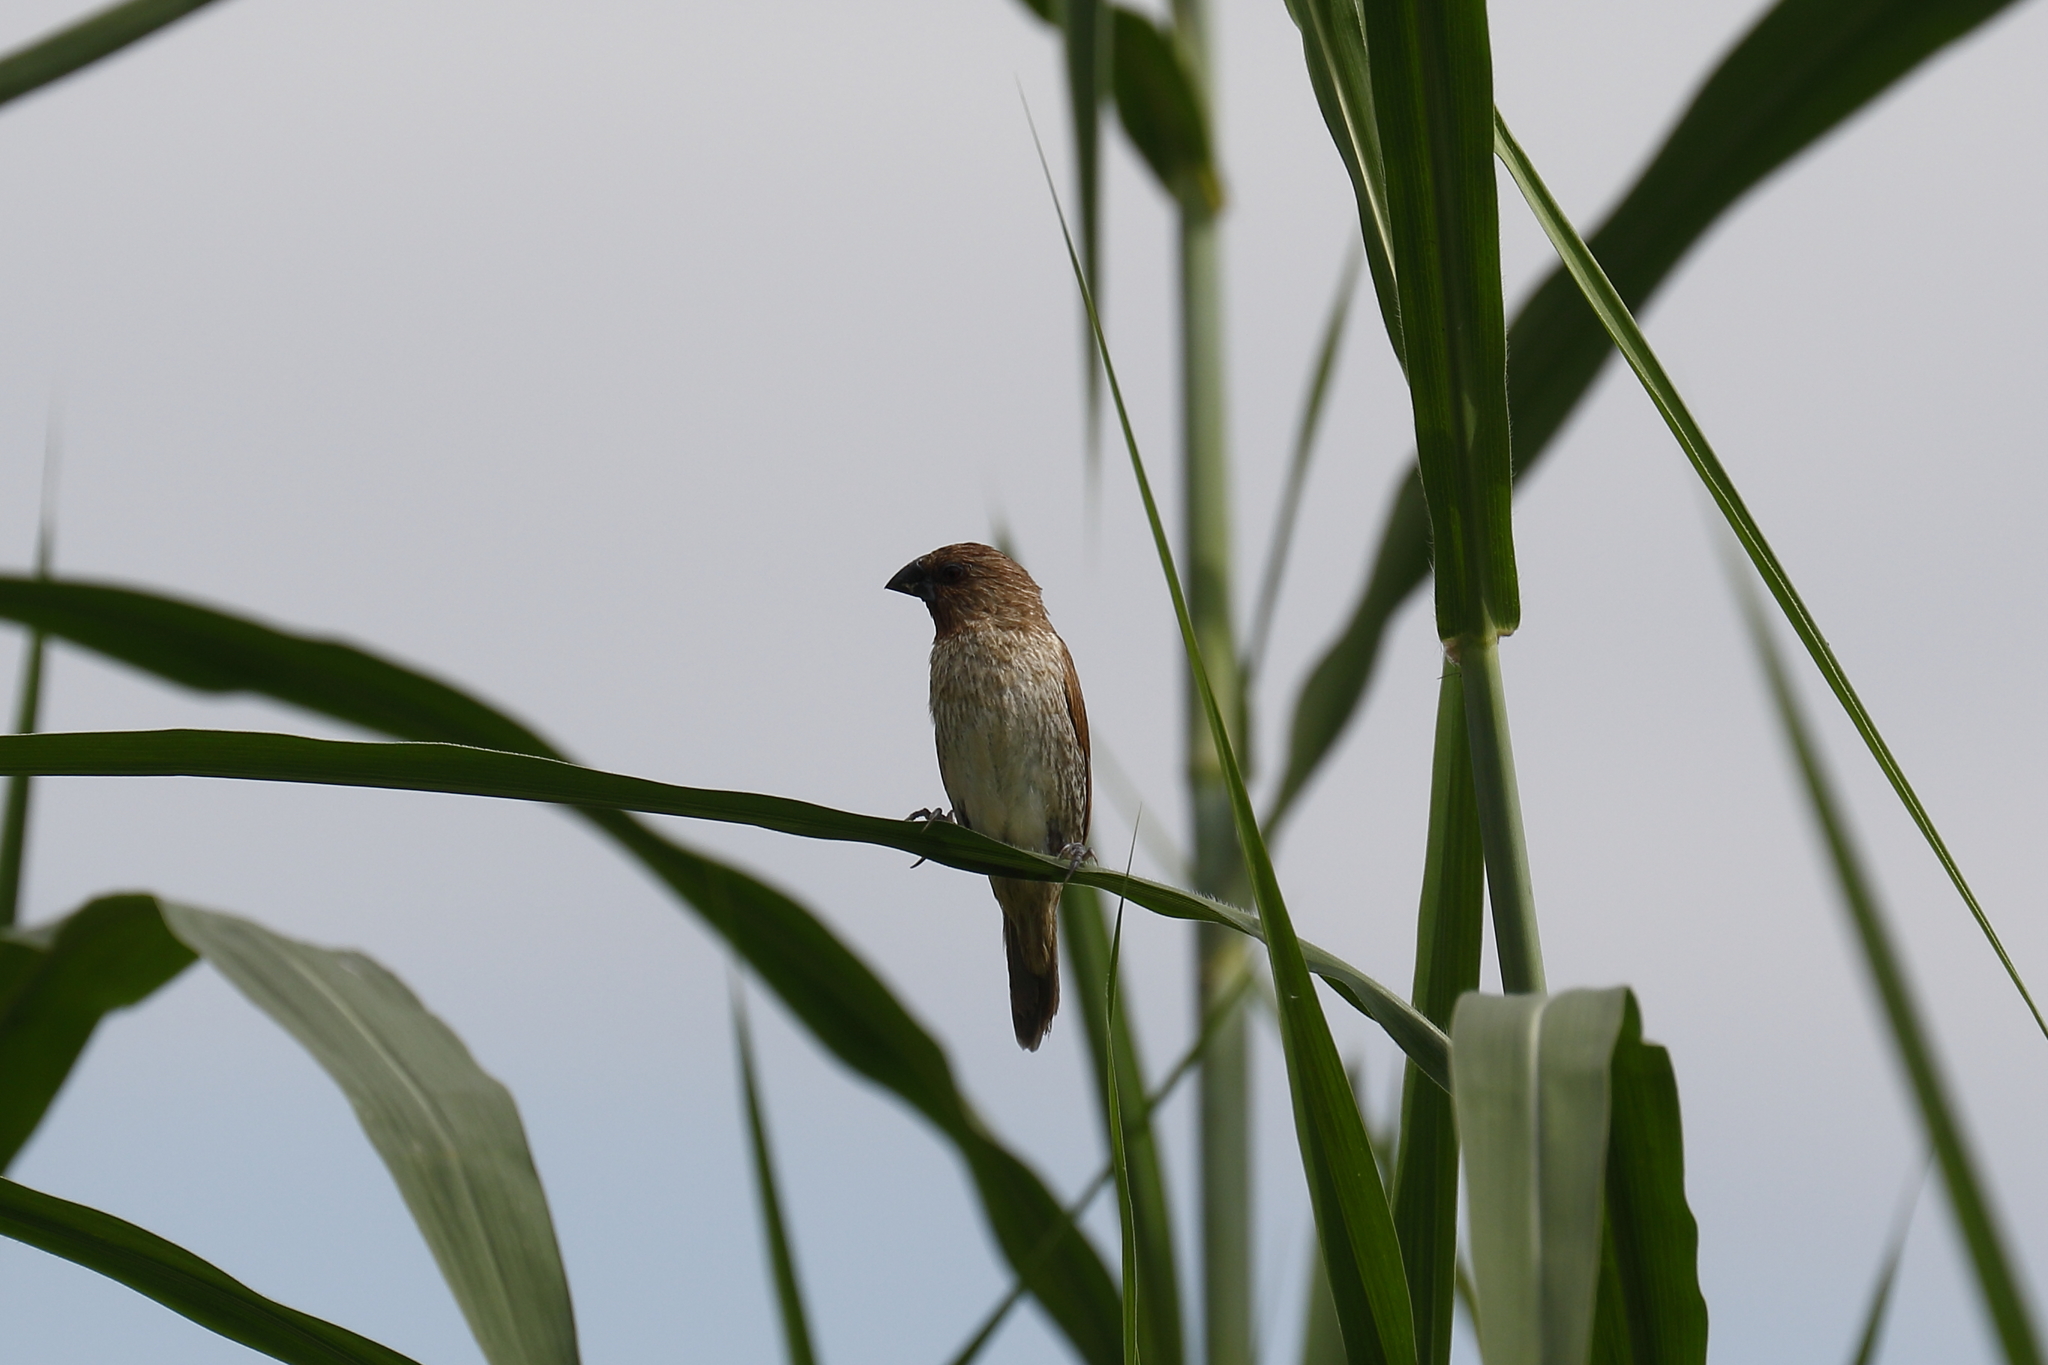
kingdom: Animalia
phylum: Chordata
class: Aves
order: Passeriformes
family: Estrildidae
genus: Lonchura
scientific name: Lonchura punctulata
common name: Scaly-breasted munia
